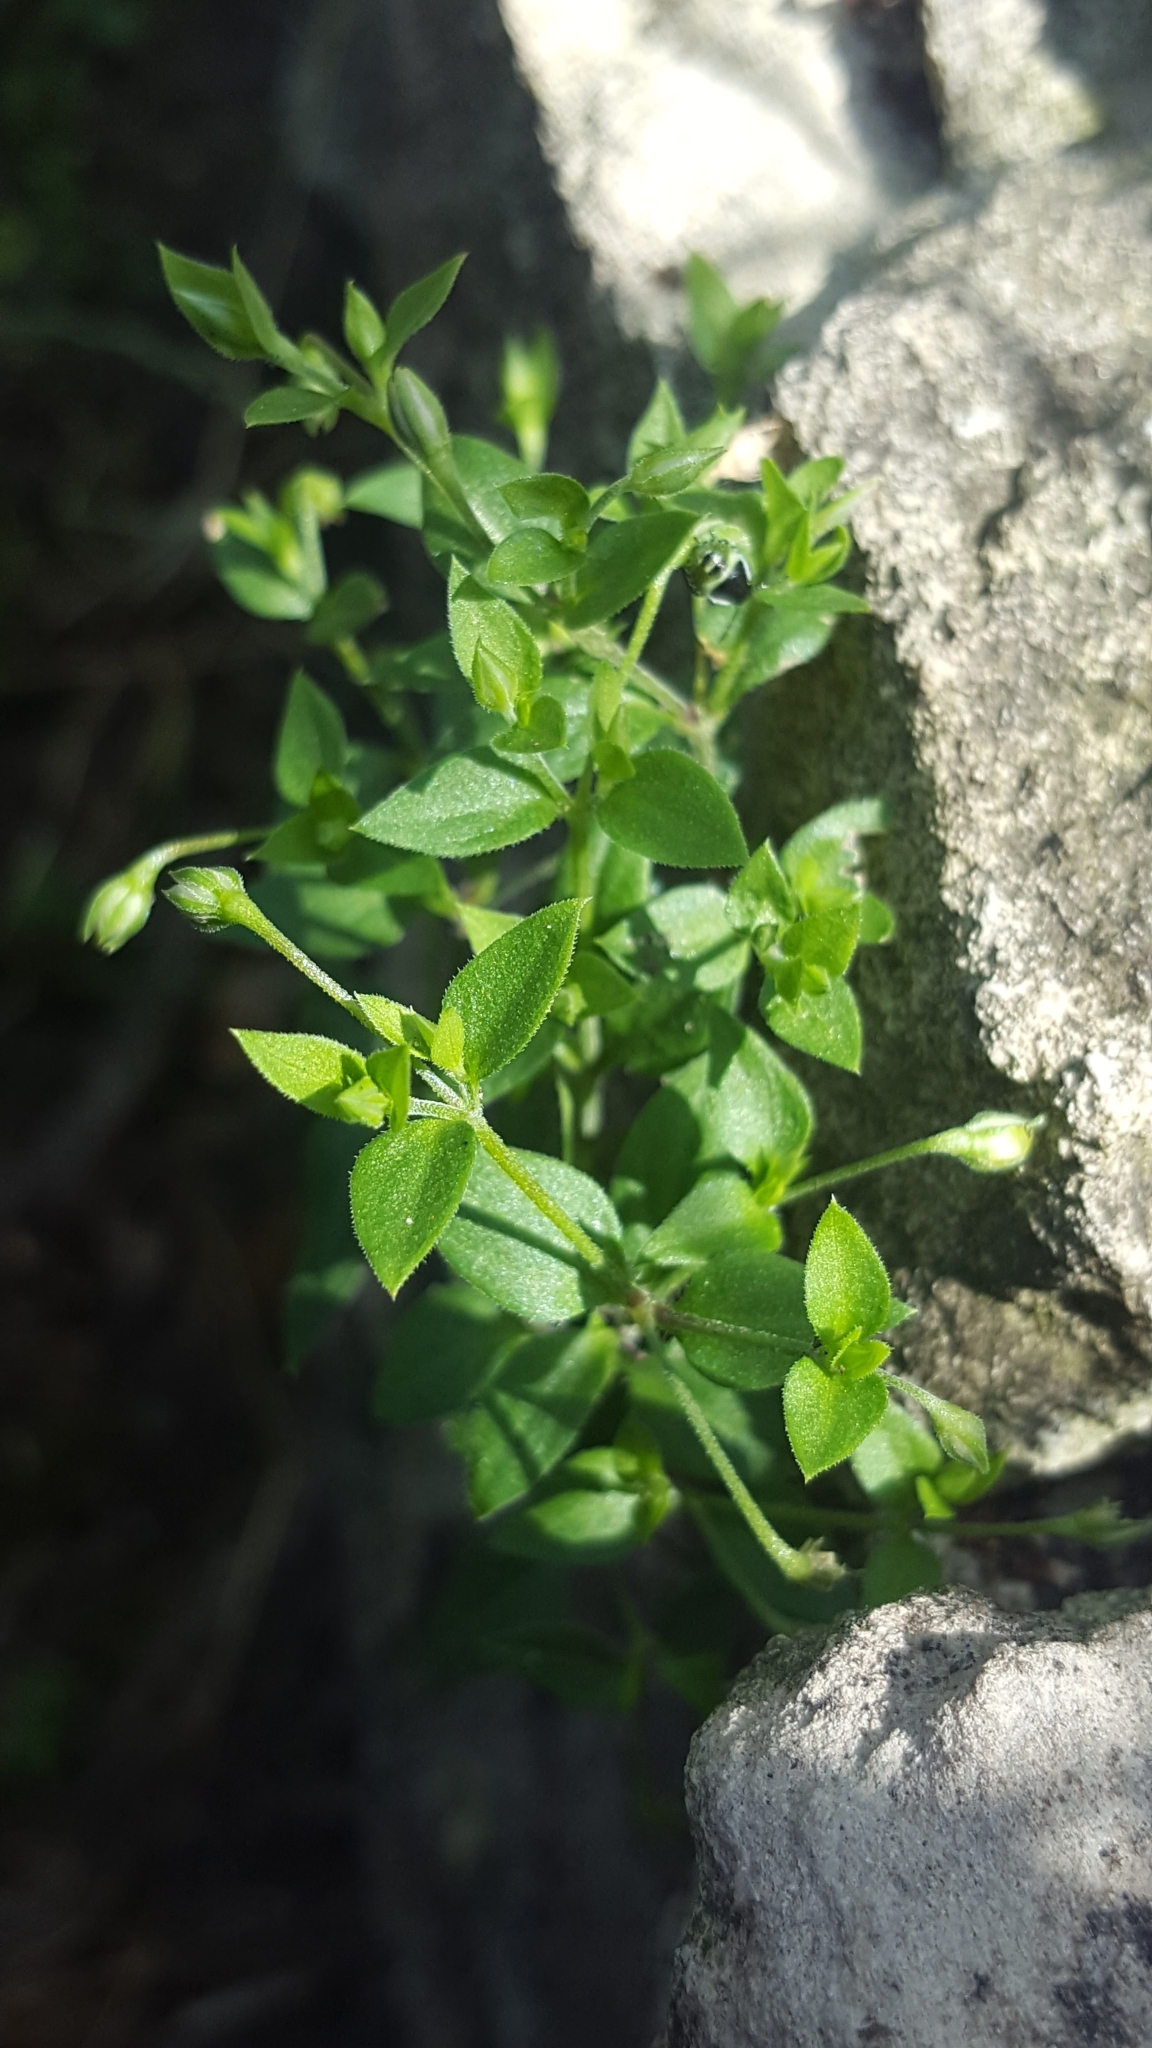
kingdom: Plantae
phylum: Tracheophyta
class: Magnoliopsida
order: Caryophyllales
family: Caryophyllaceae
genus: Arenaria
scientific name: Arenaria serpyllifolia
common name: Thyme-leaved sandwort
